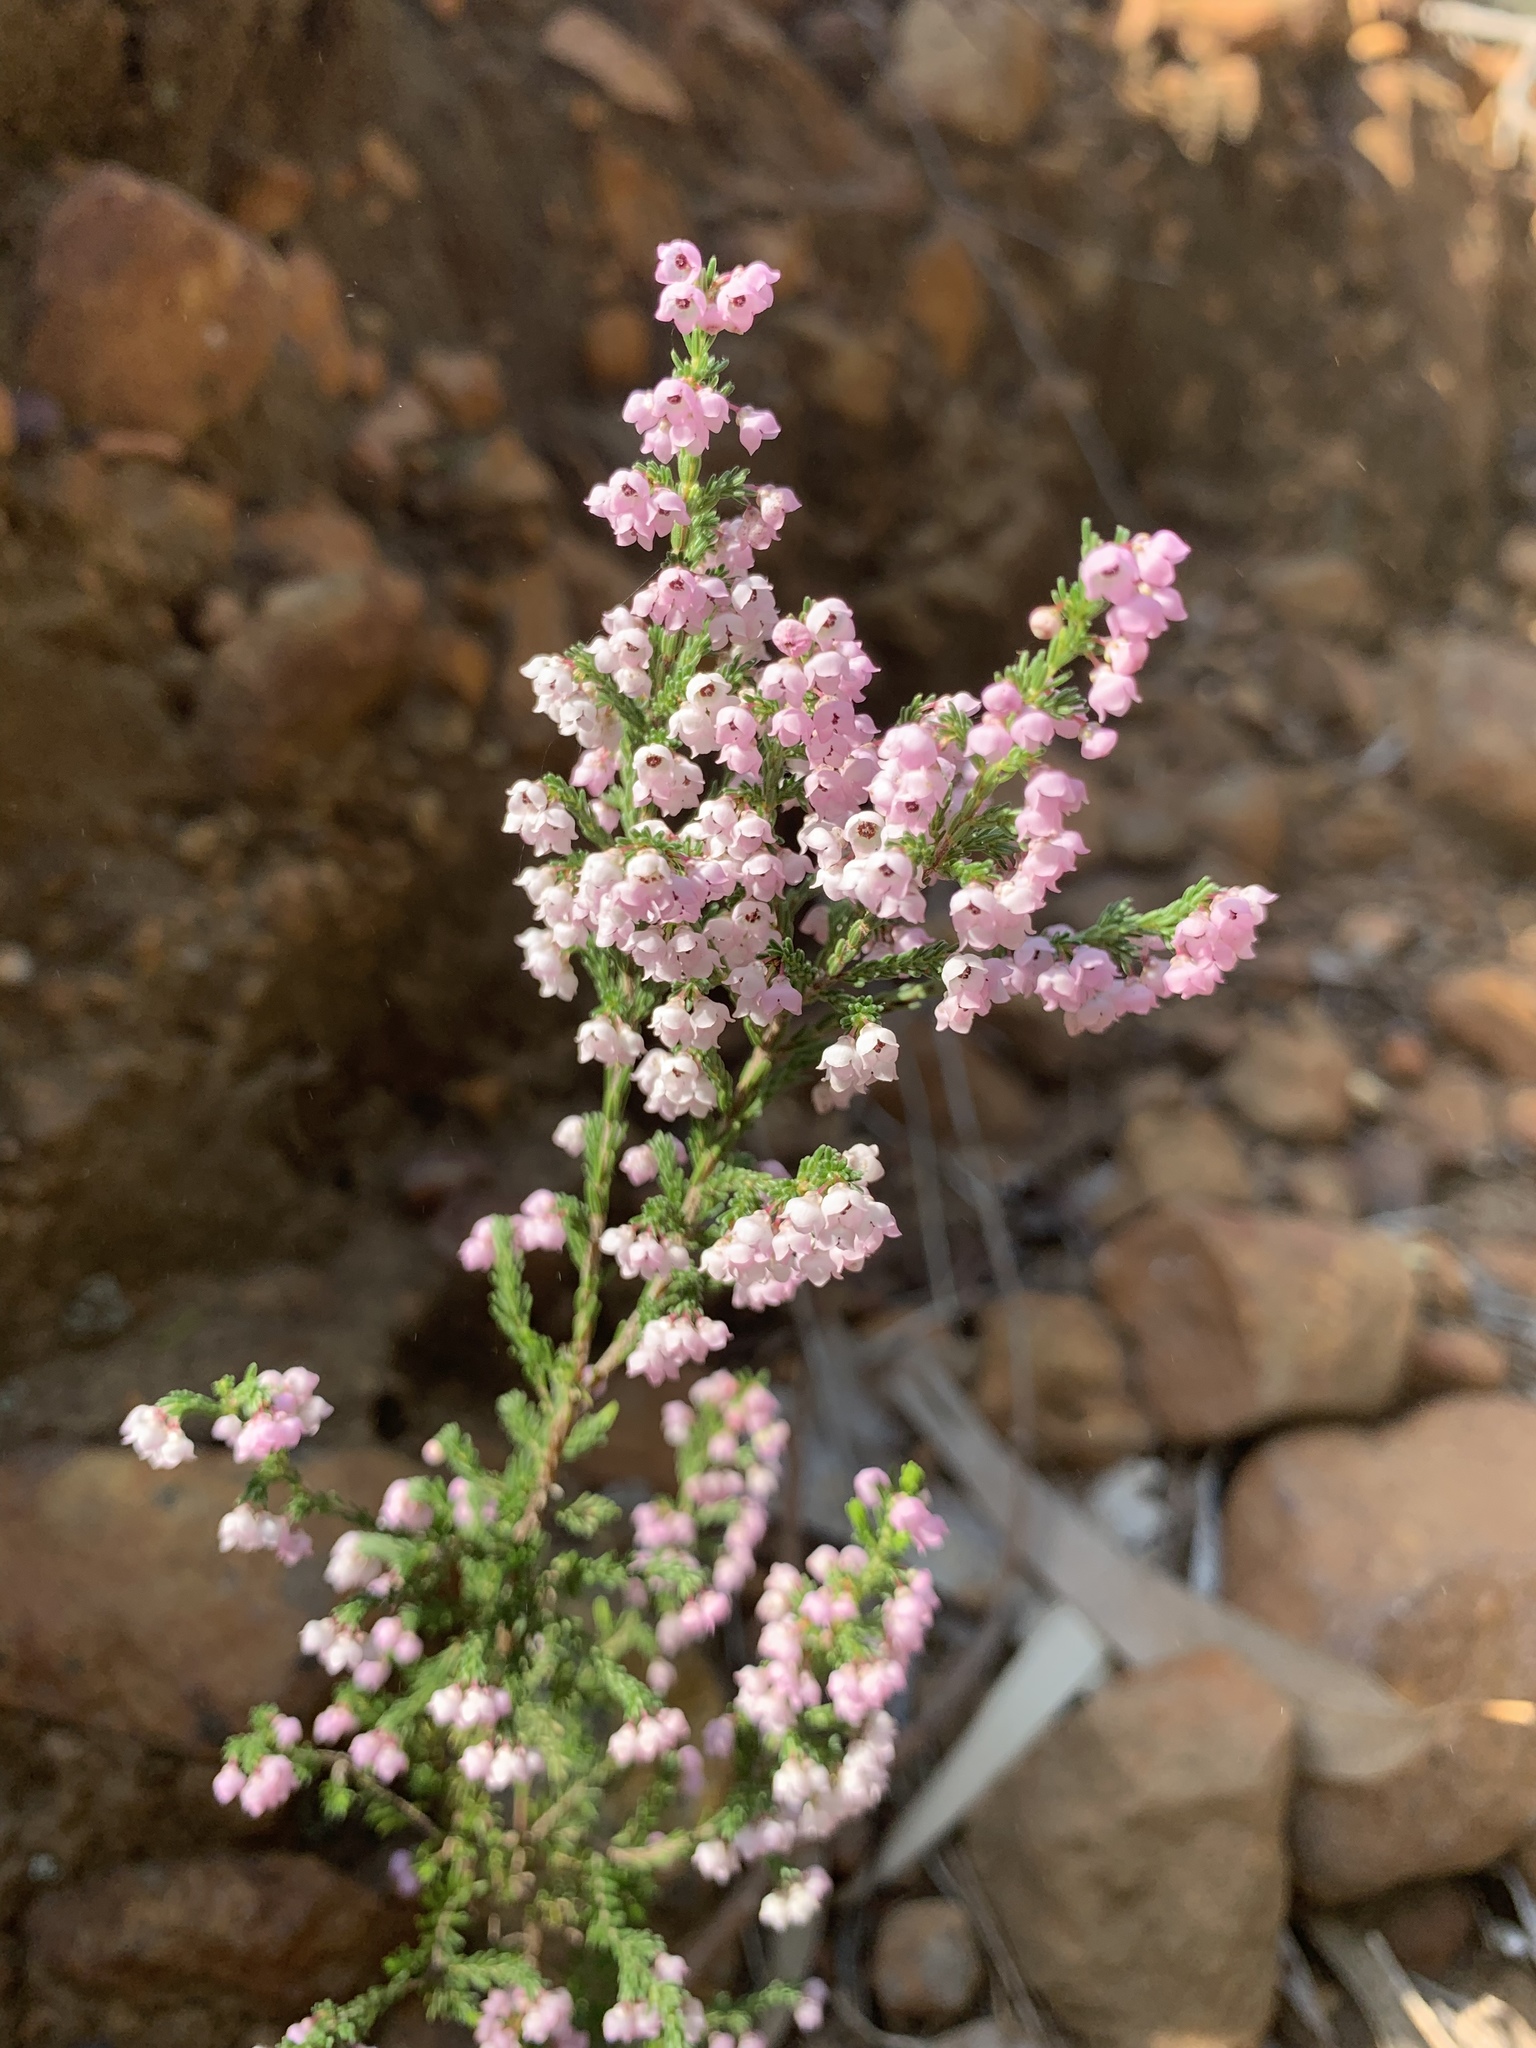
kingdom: Plantae
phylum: Tracheophyta
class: Magnoliopsida
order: Ericales
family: Ericaceae
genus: Erica
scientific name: Erica mauritanica
